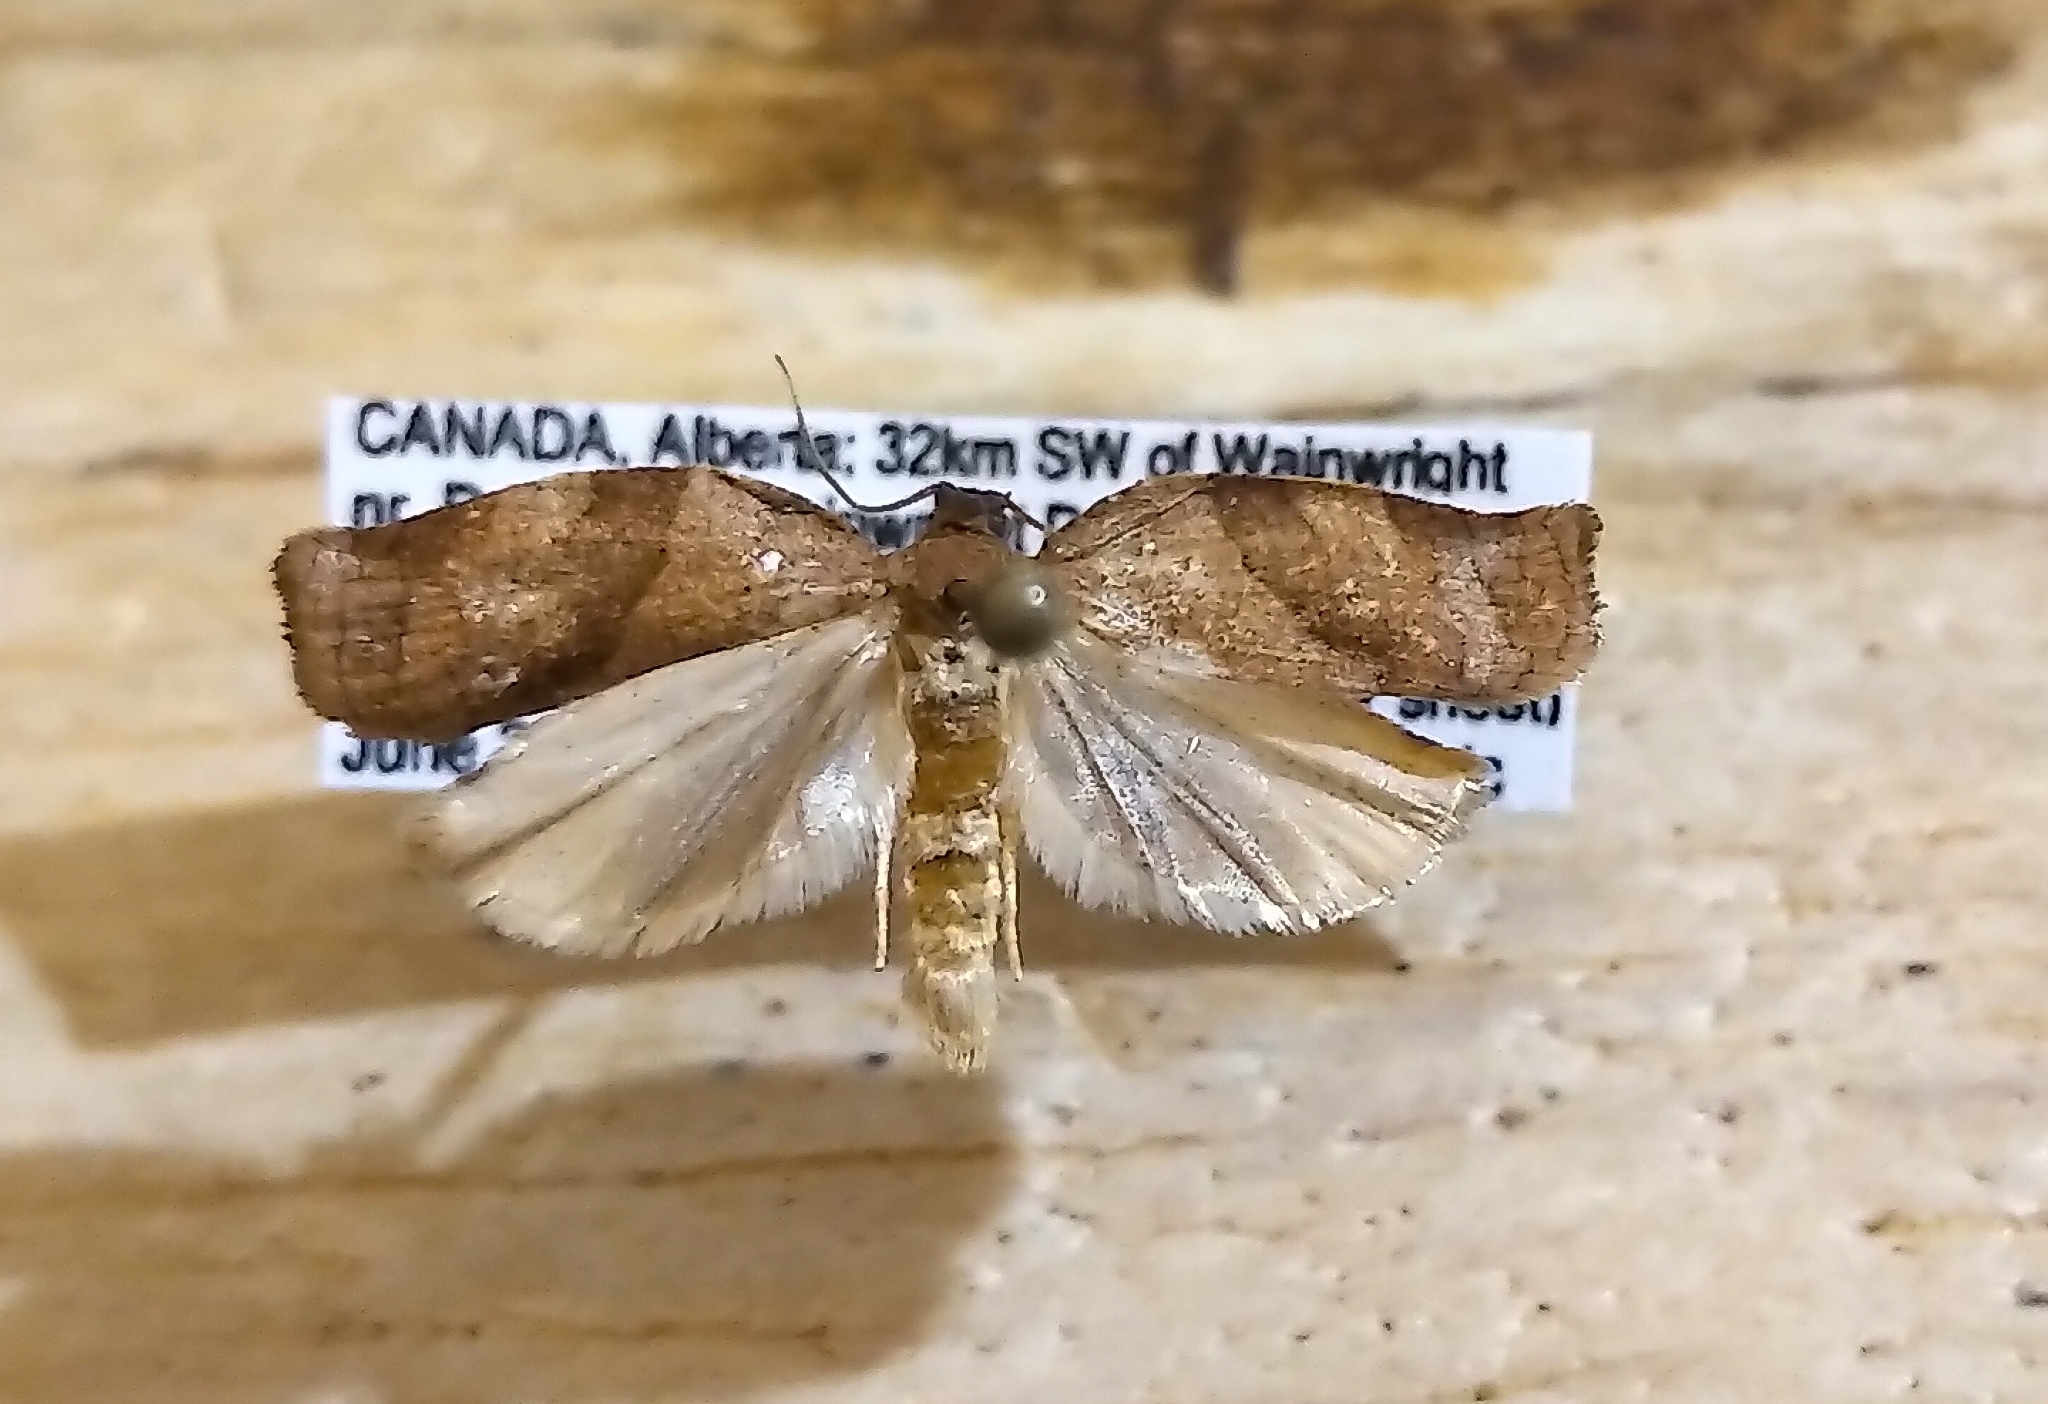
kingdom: Animalia
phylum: Arthropoda
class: Insecta
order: Lepidoptera
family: Tortricidae
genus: Choristoneura
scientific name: Choristoneura rosaceana
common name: Oblique-banded leafroller moth
